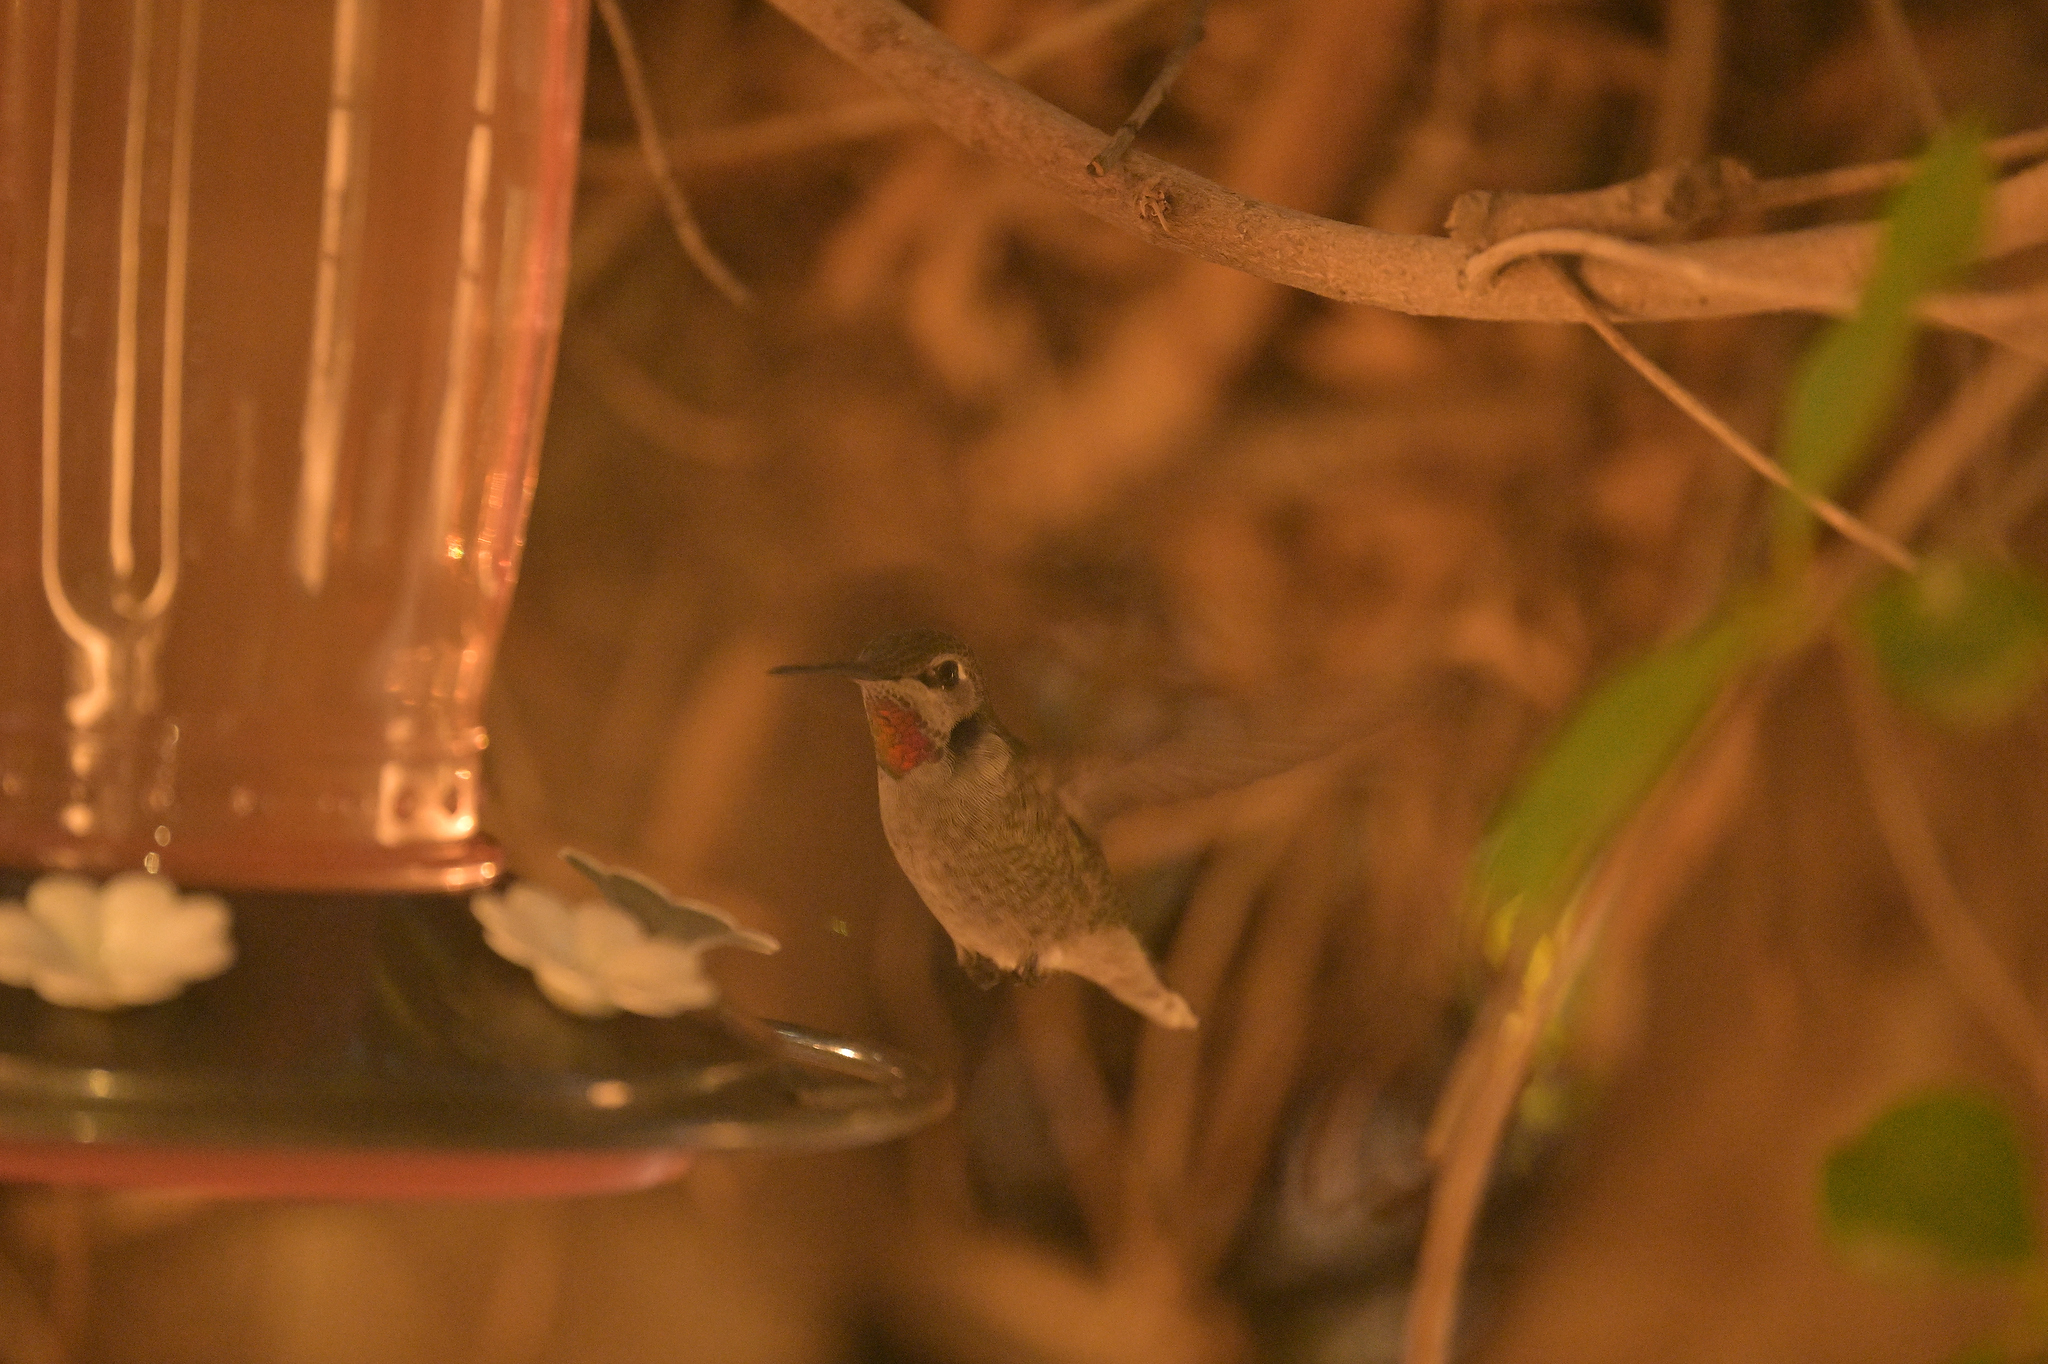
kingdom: Animalia
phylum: Chordata
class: Aves
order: Apodiformes
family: Trochilidae
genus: Calypte
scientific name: Calypte anna
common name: Anna's hummingbird
